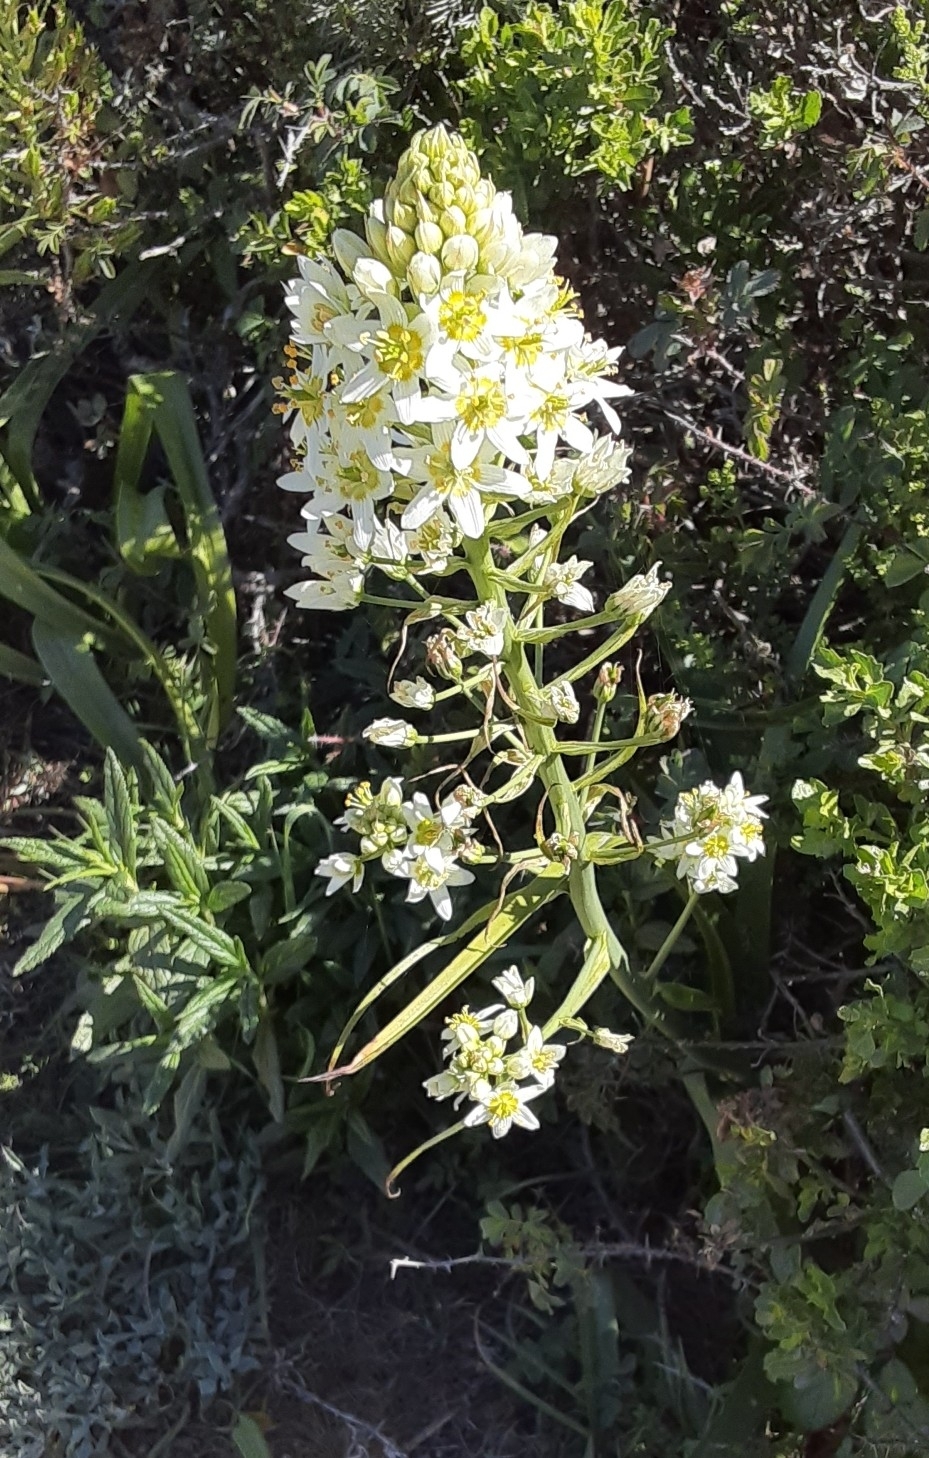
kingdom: Plantae
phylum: Tracheophyta
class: Liliopsida
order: Liliales
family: Melanthiaceae
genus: Toxicoscordion
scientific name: Toxicoscordion fremontii
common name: Fremont's death camas
